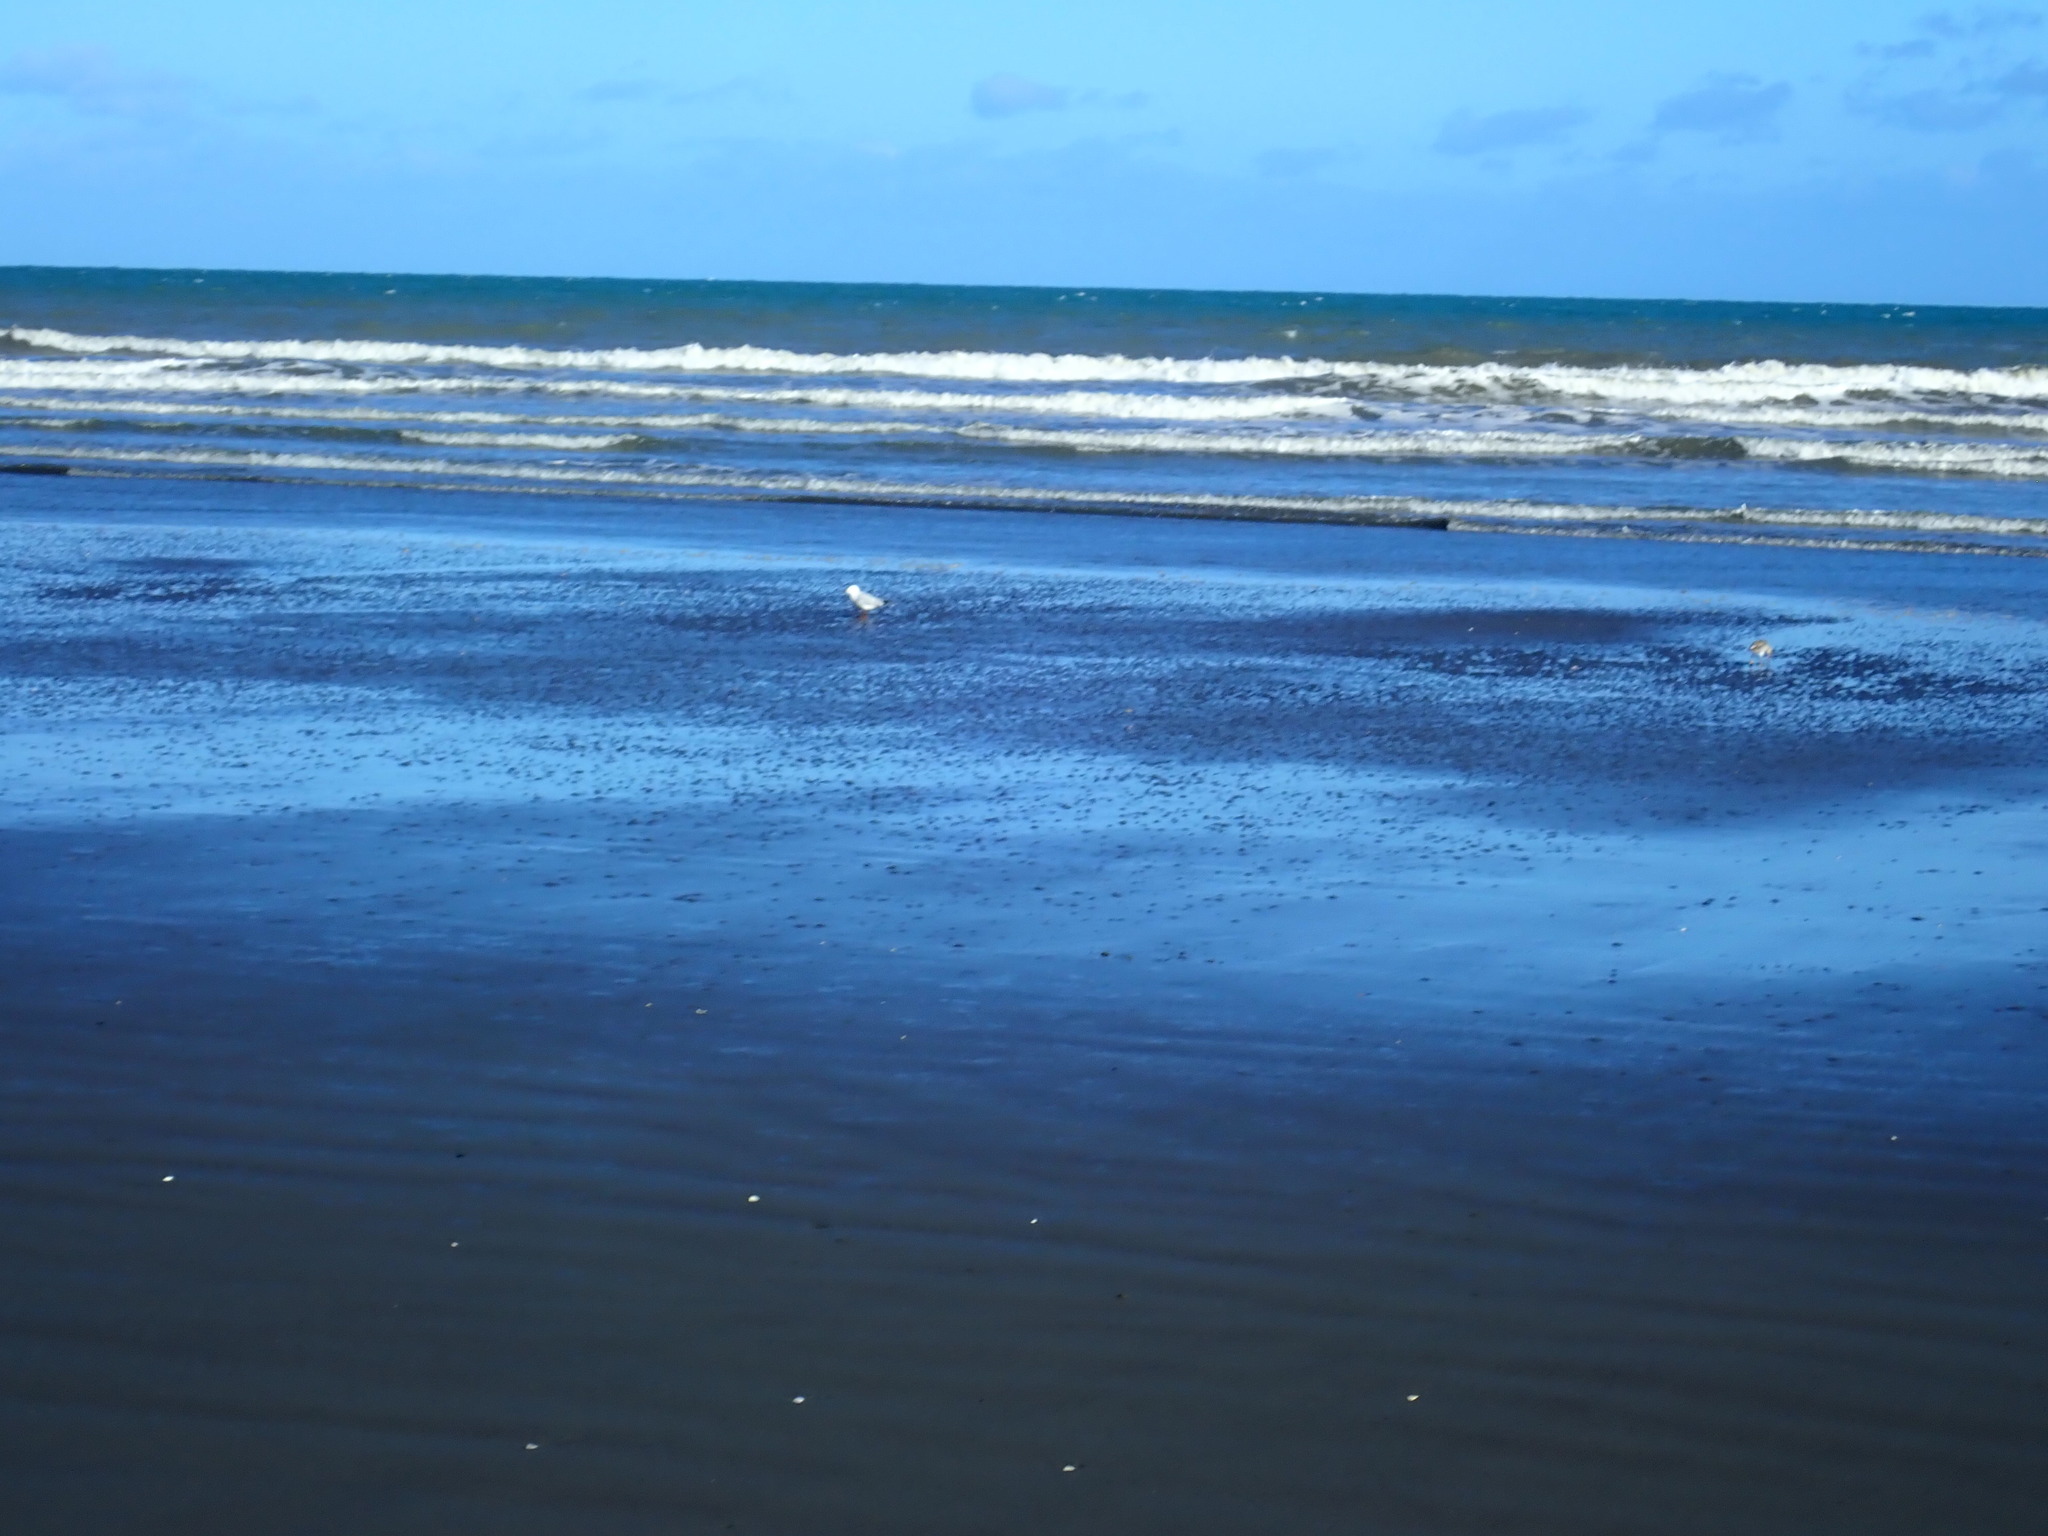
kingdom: Animalia
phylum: Chordata
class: Aves
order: Charadriiformes
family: Scolopacidae
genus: Limosa
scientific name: Limosa lapponica
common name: Bar-tailed godwit
